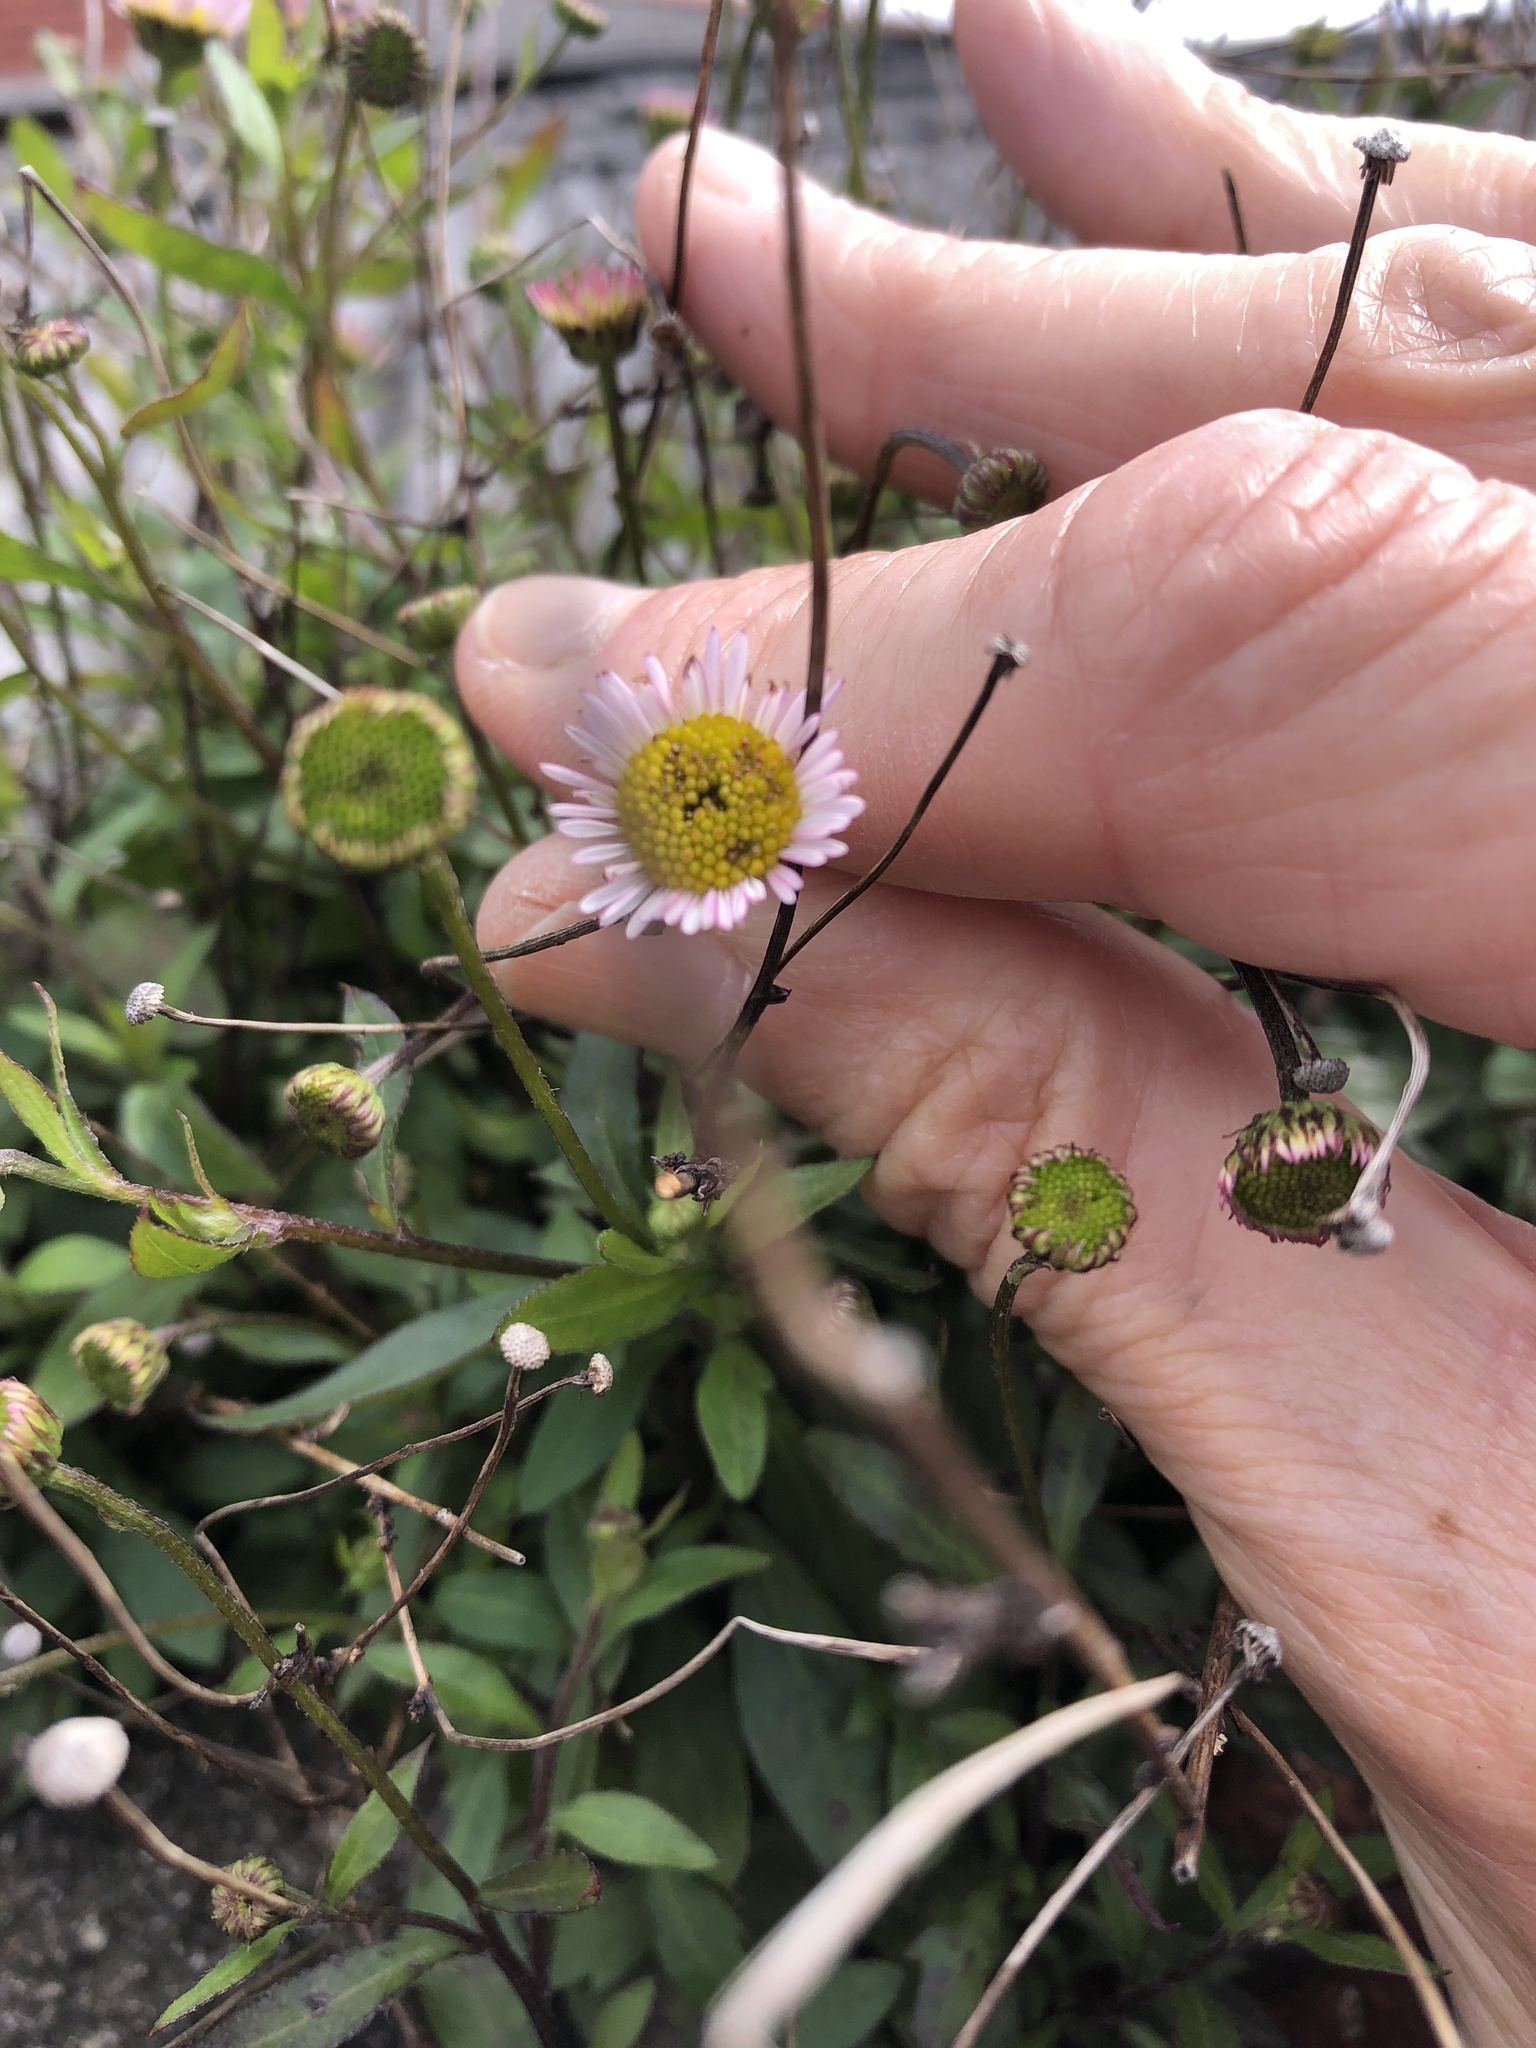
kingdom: Plantae
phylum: Tracheophyta
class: Magnoliopsida
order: Asterales
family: Asteraceae
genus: Erigeron
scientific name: Erigeron karvinskianus
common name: Mexican fleabane
